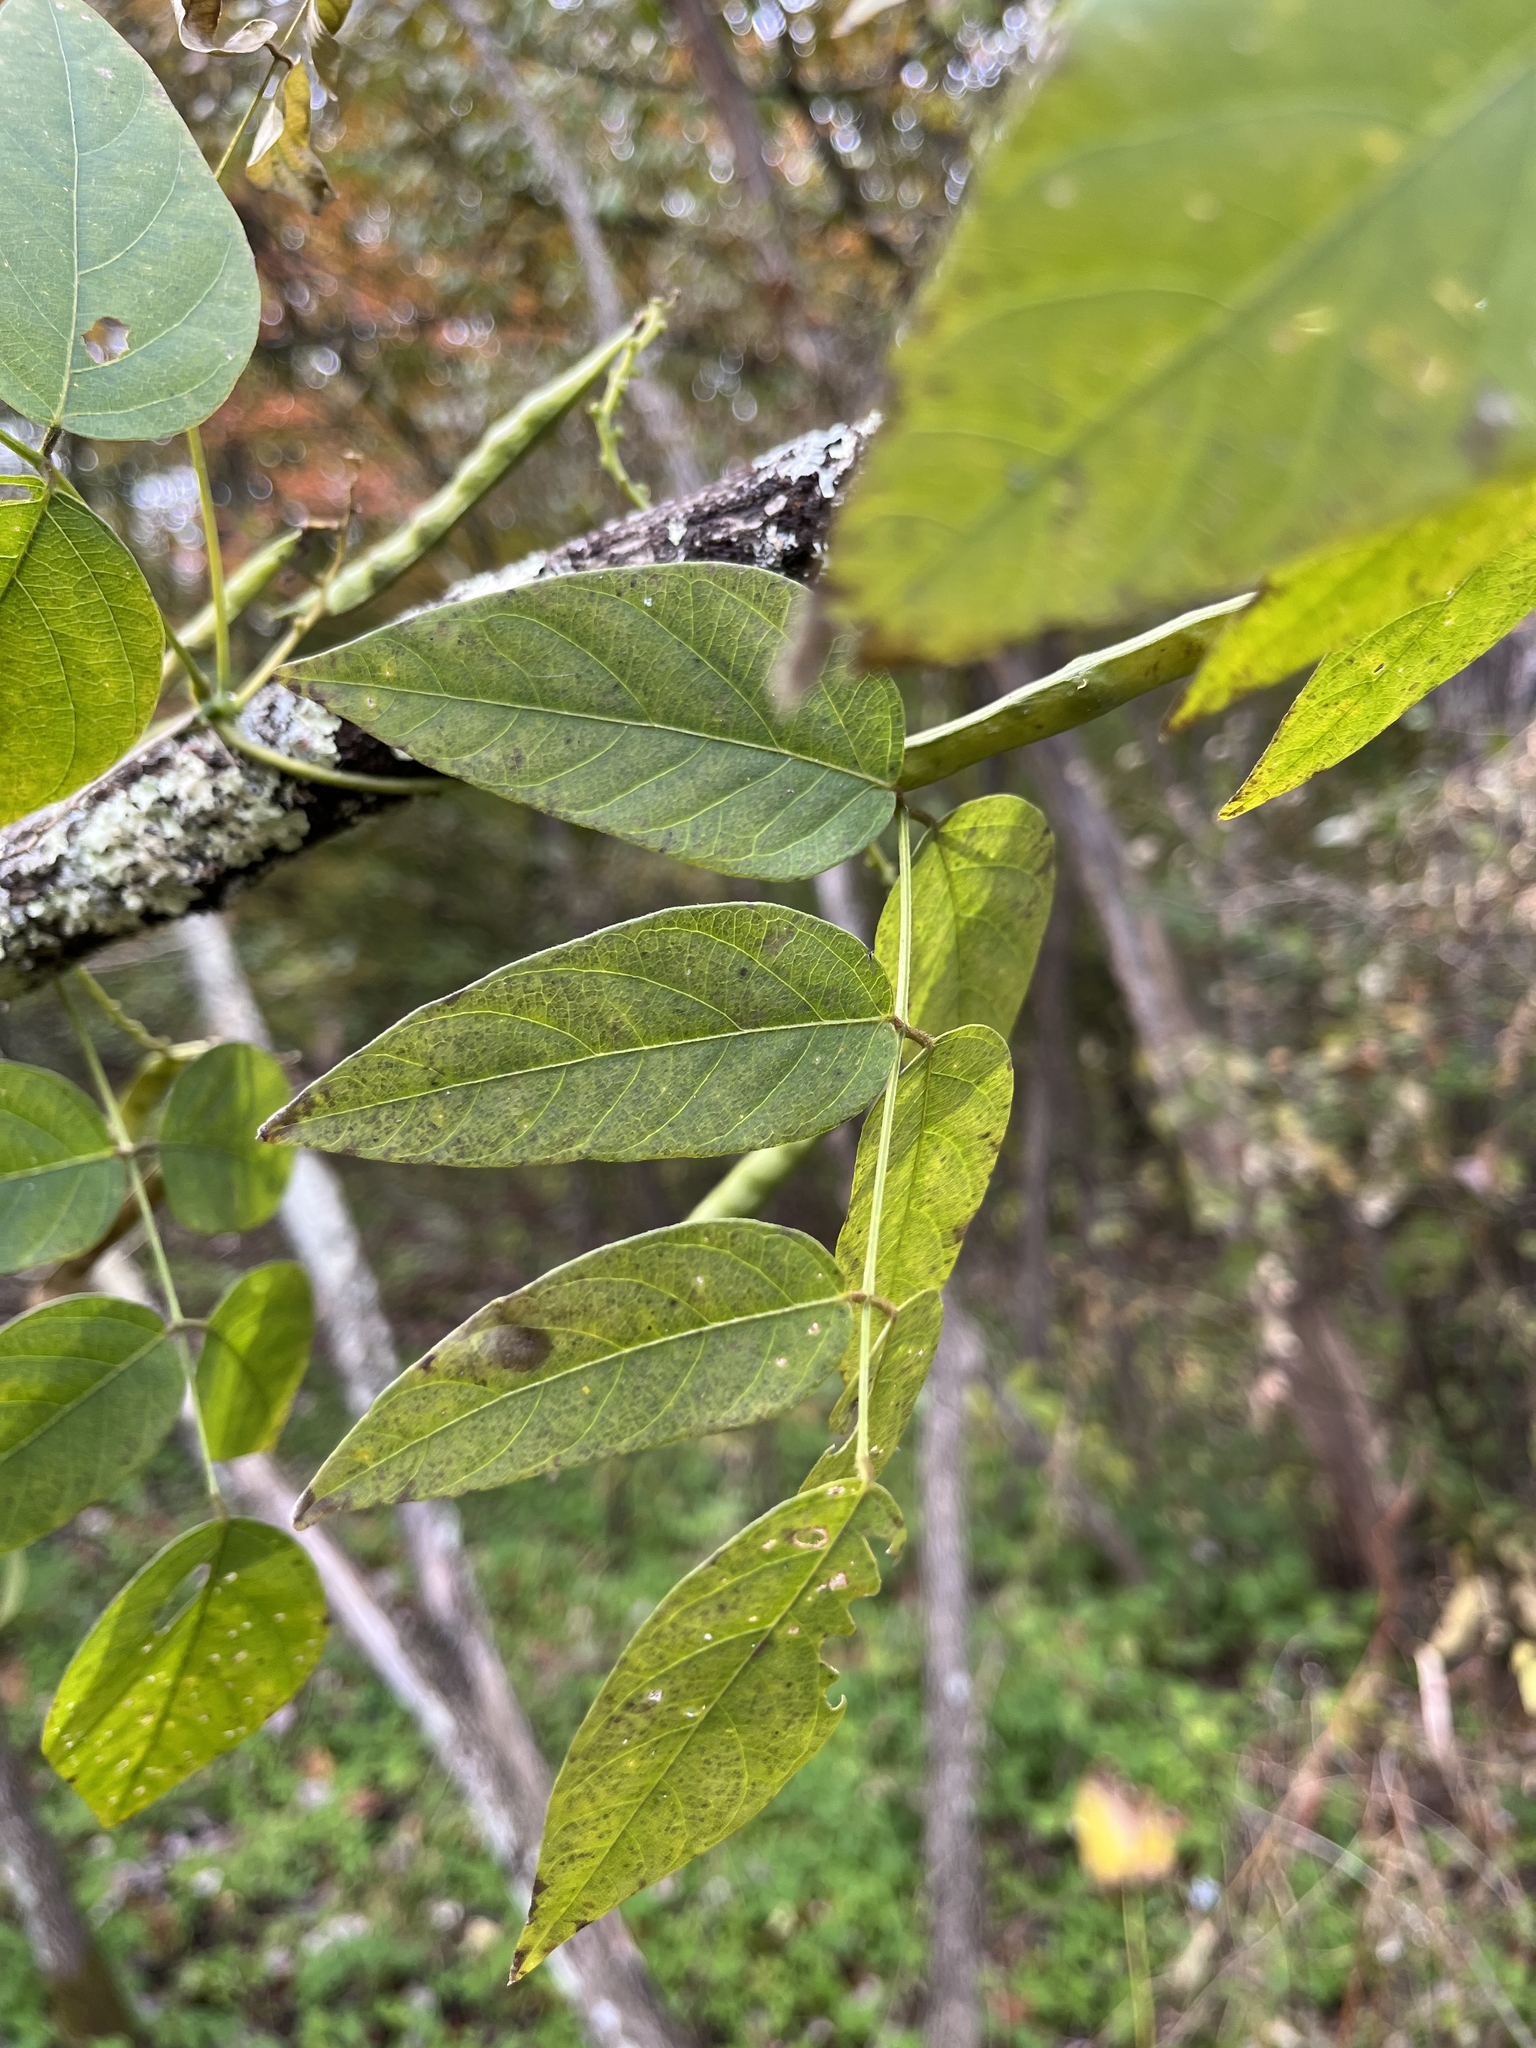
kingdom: Plantae
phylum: Tracheophyta
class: Magnoliopsida
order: Fabales
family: Fabaceae
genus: Apios
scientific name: Apios americana
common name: American potato-bean
